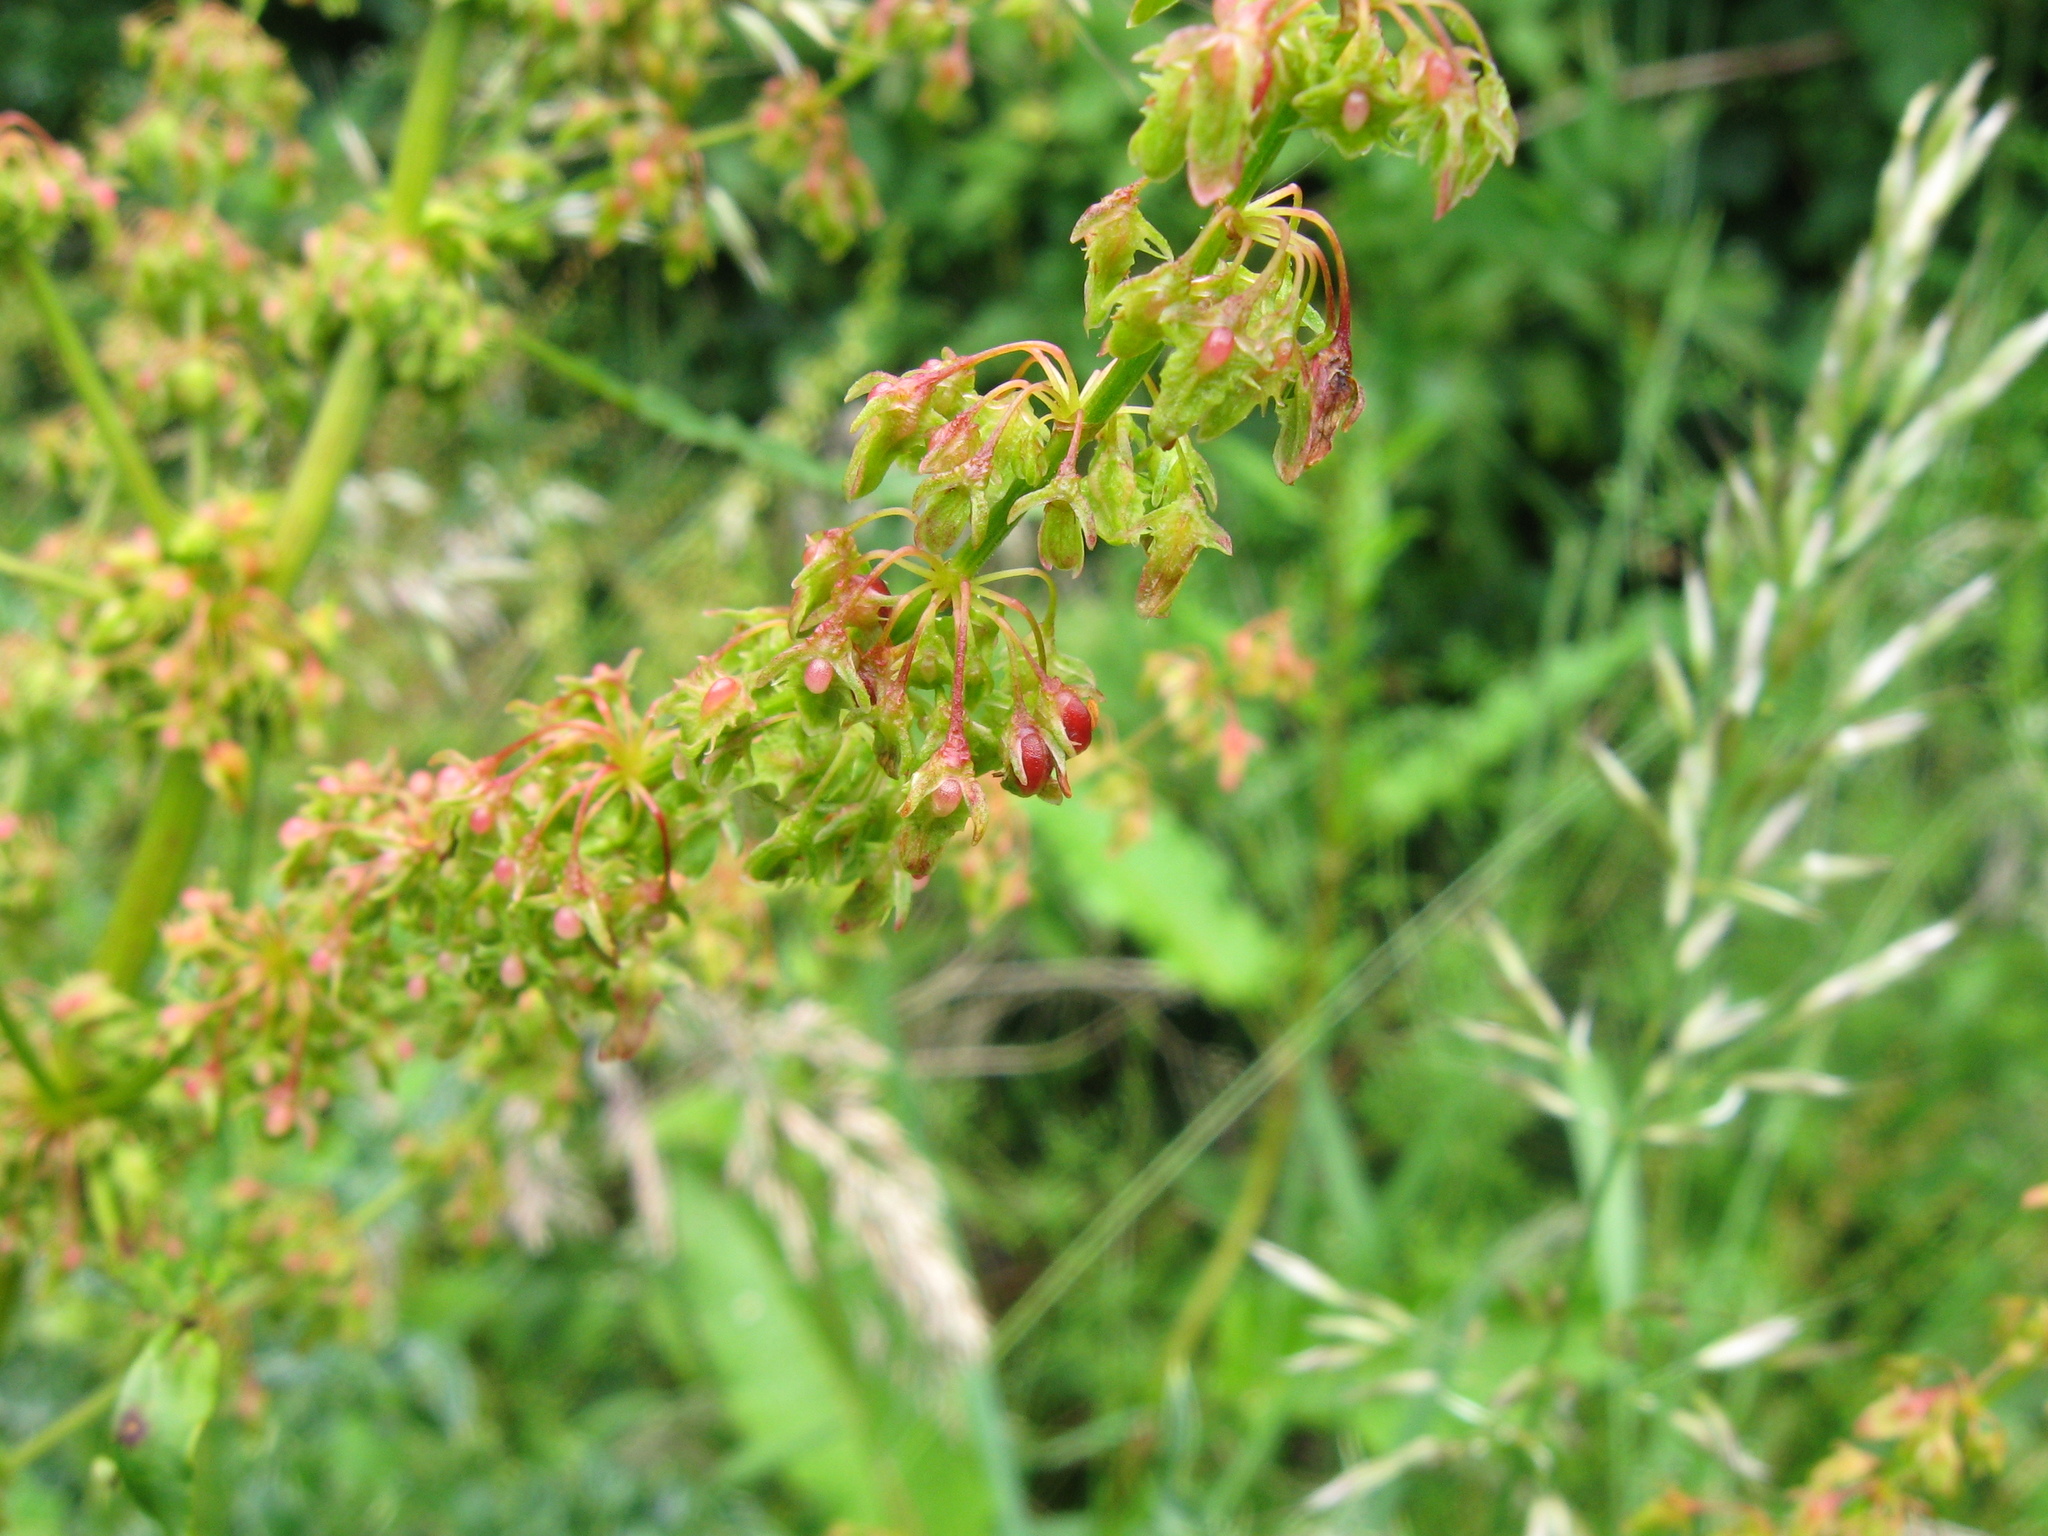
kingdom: Animalia
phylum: Arthropoda
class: Insecta
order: Diptera
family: Cecidomyiidae
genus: Contarinia
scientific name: Contarinia rumicis
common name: Gall midge
